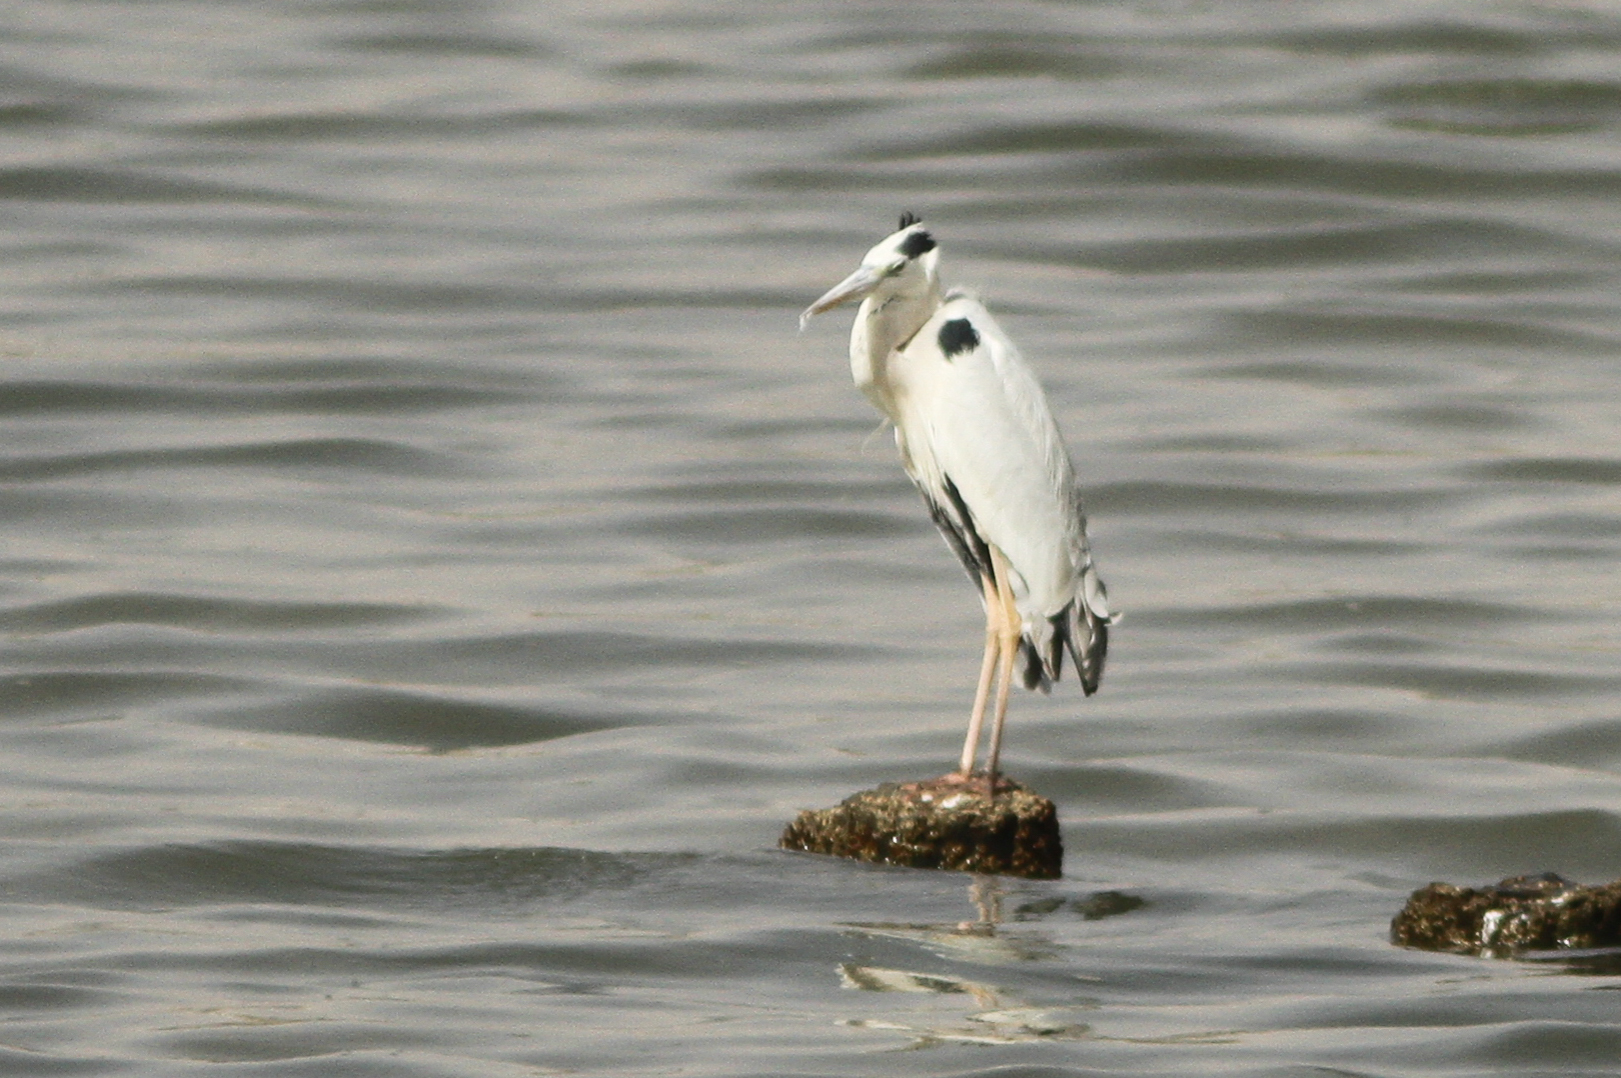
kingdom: Animalia
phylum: Chordata
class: Aves
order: Pelecaniformes
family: Ardeidae
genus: Ardea
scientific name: Ardea cinerea
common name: Grey heron
